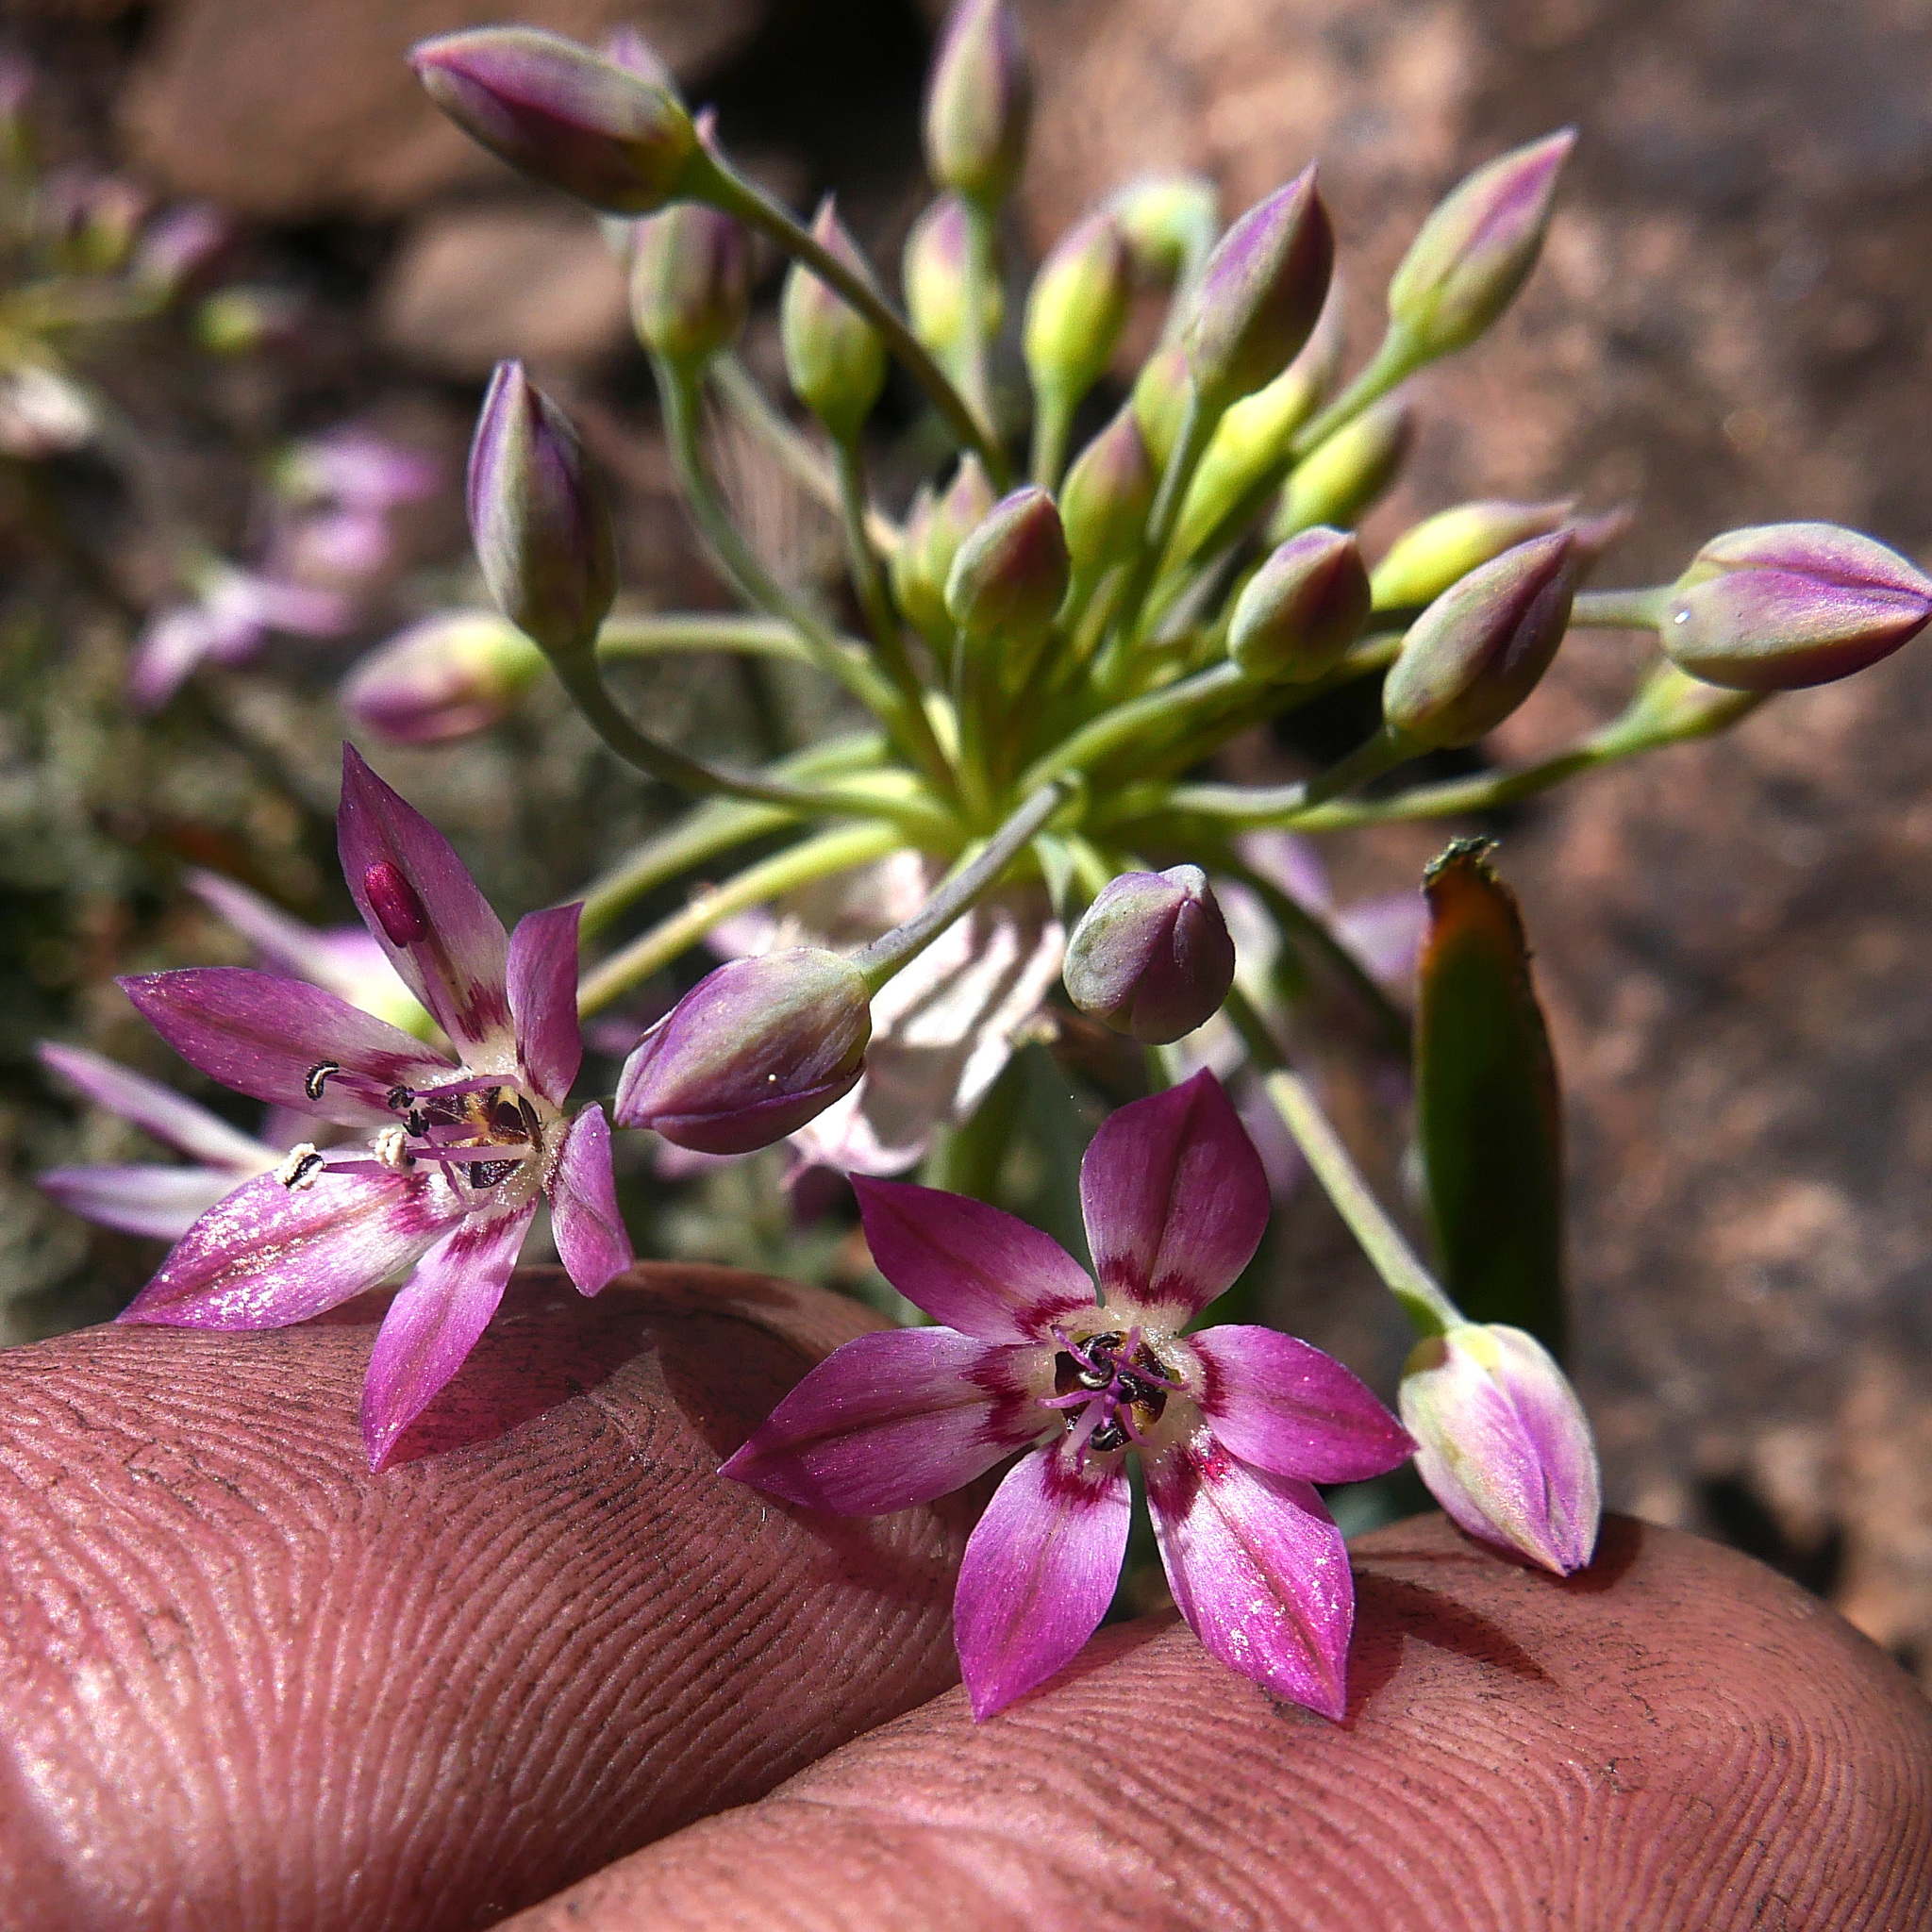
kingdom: Plantae
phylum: Tracheophyta
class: Liliopsida
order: Asparagales
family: Amaryllidaceae
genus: Allium
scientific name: Allium campanulatum
